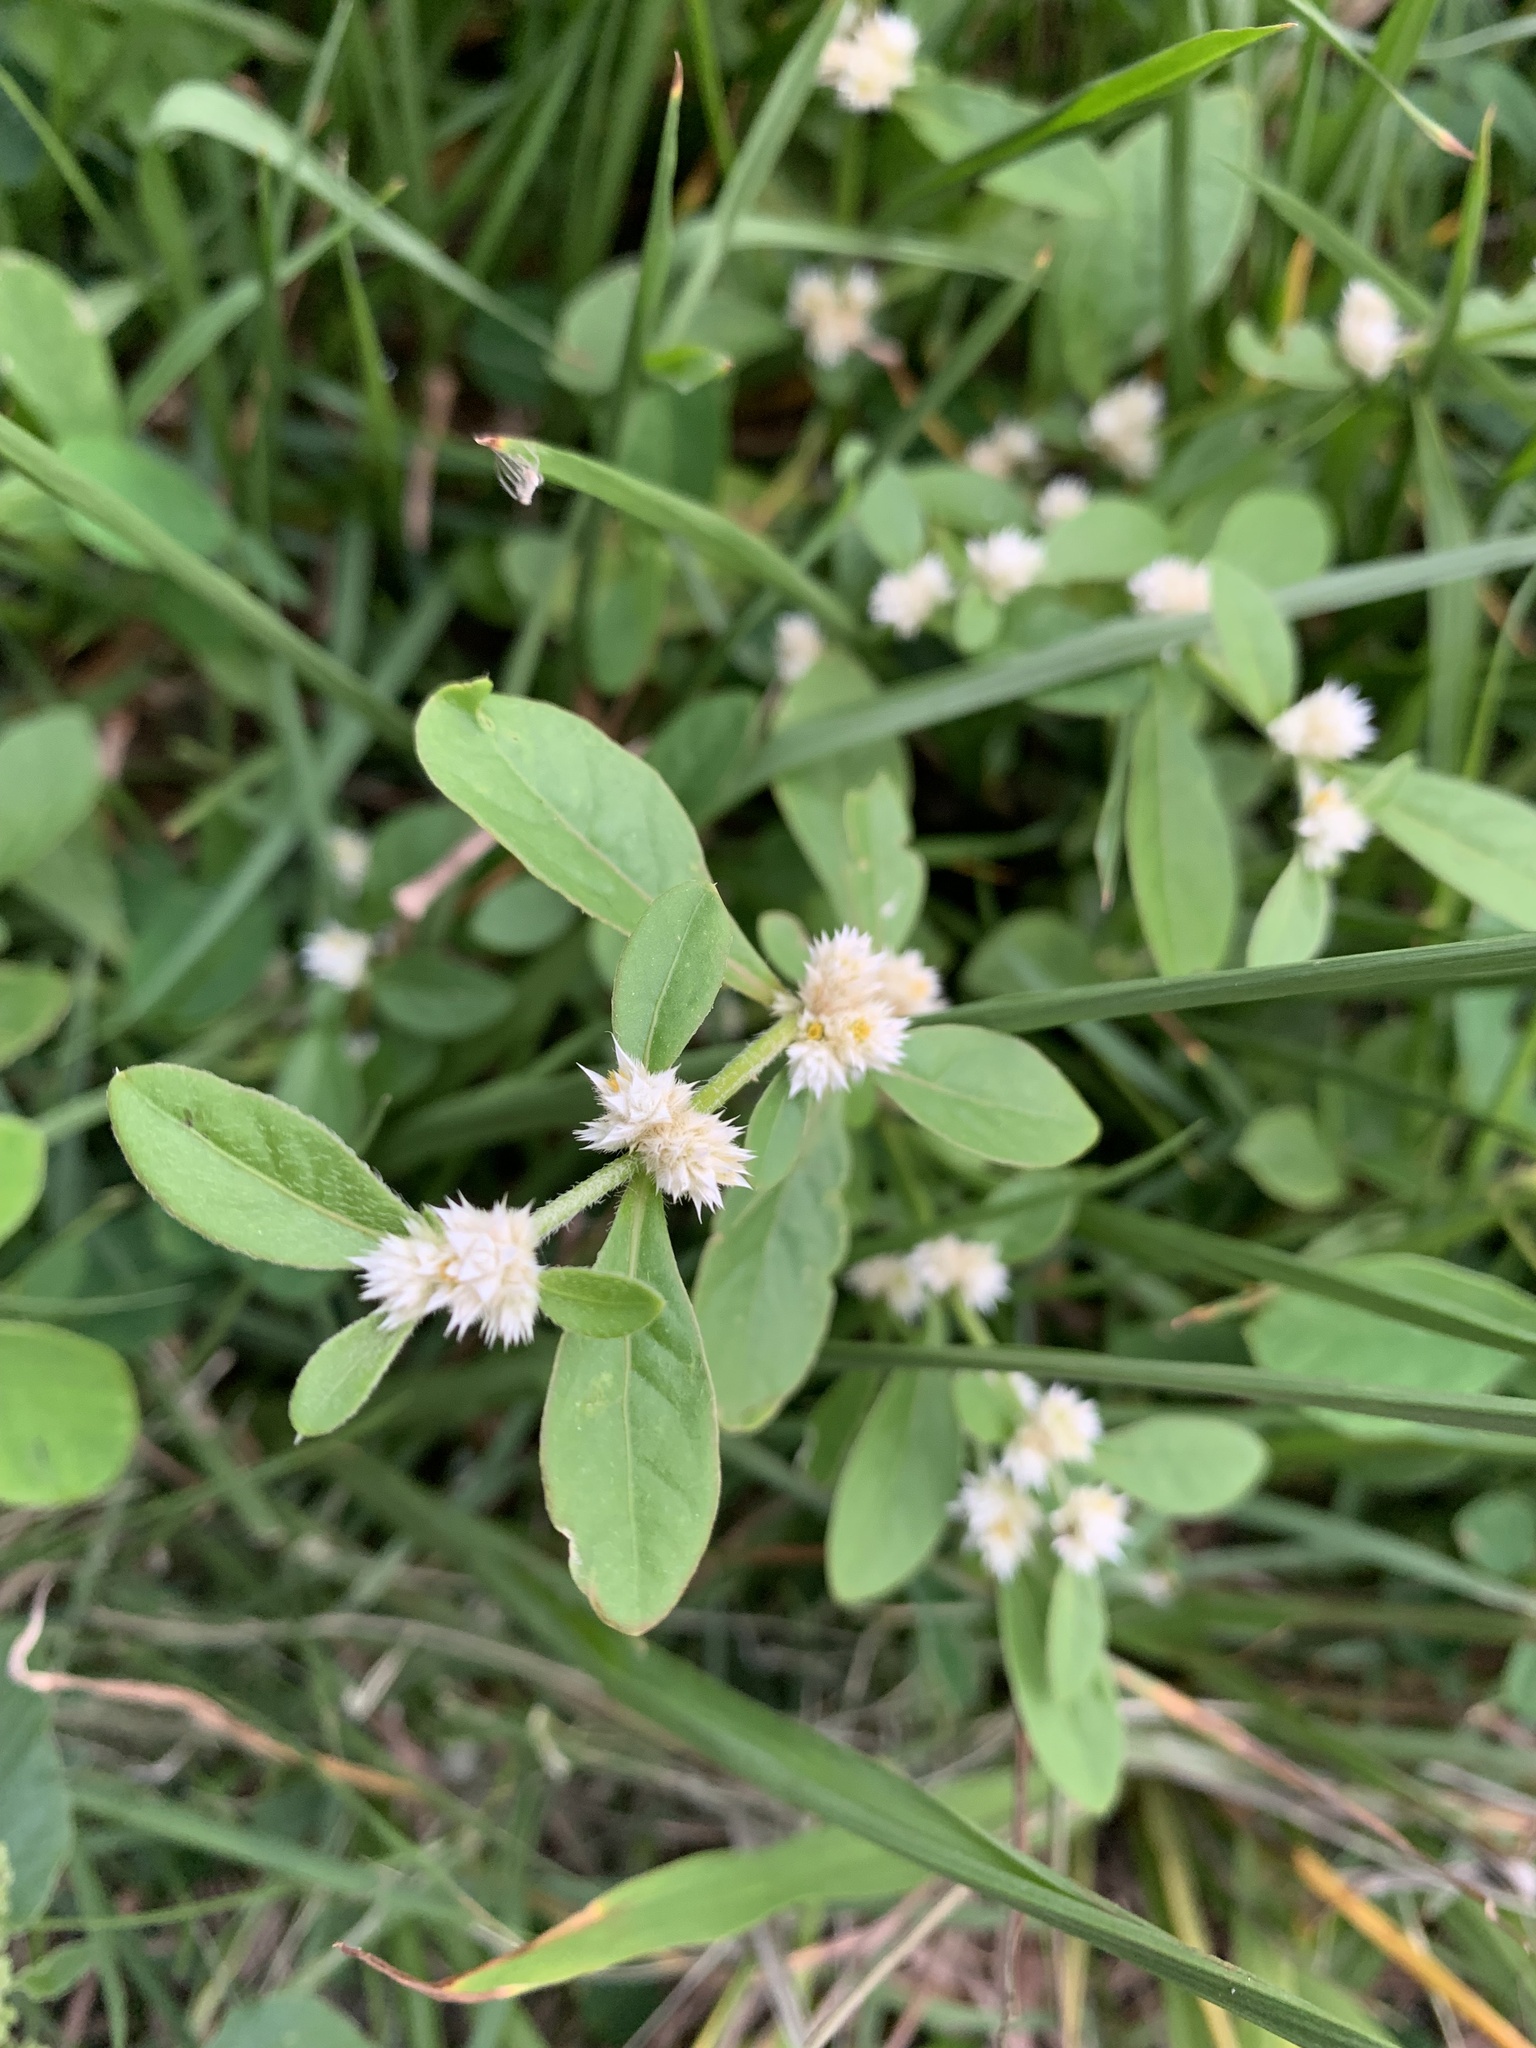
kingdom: Plantae
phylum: Tracheophyta
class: Magnoliopsida
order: Caryophyllales
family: Amaranthaceae
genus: Alternanthera
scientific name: Alternanthera ficoidea
